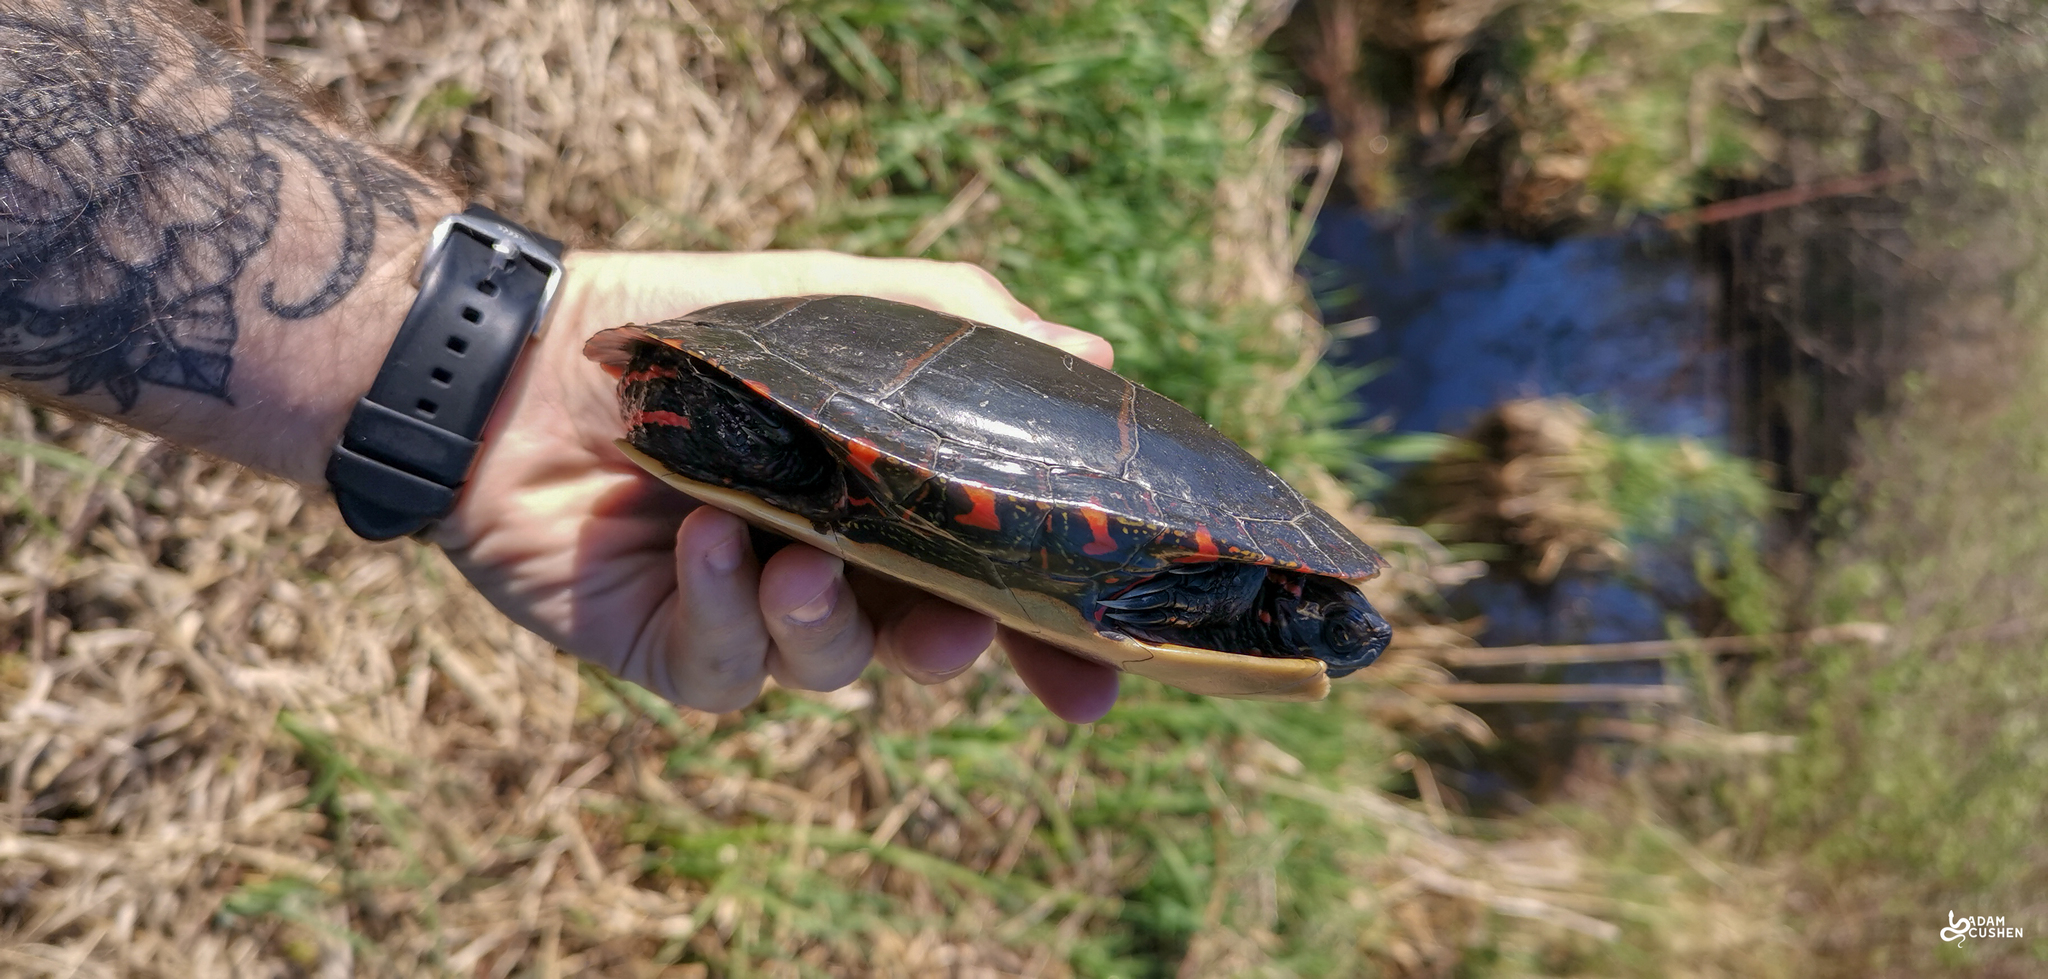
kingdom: Animalia
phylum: Chordata
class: Testudines
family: Emydidae
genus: Chrysemys
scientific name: Chrysemys picta
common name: Painted turtle
